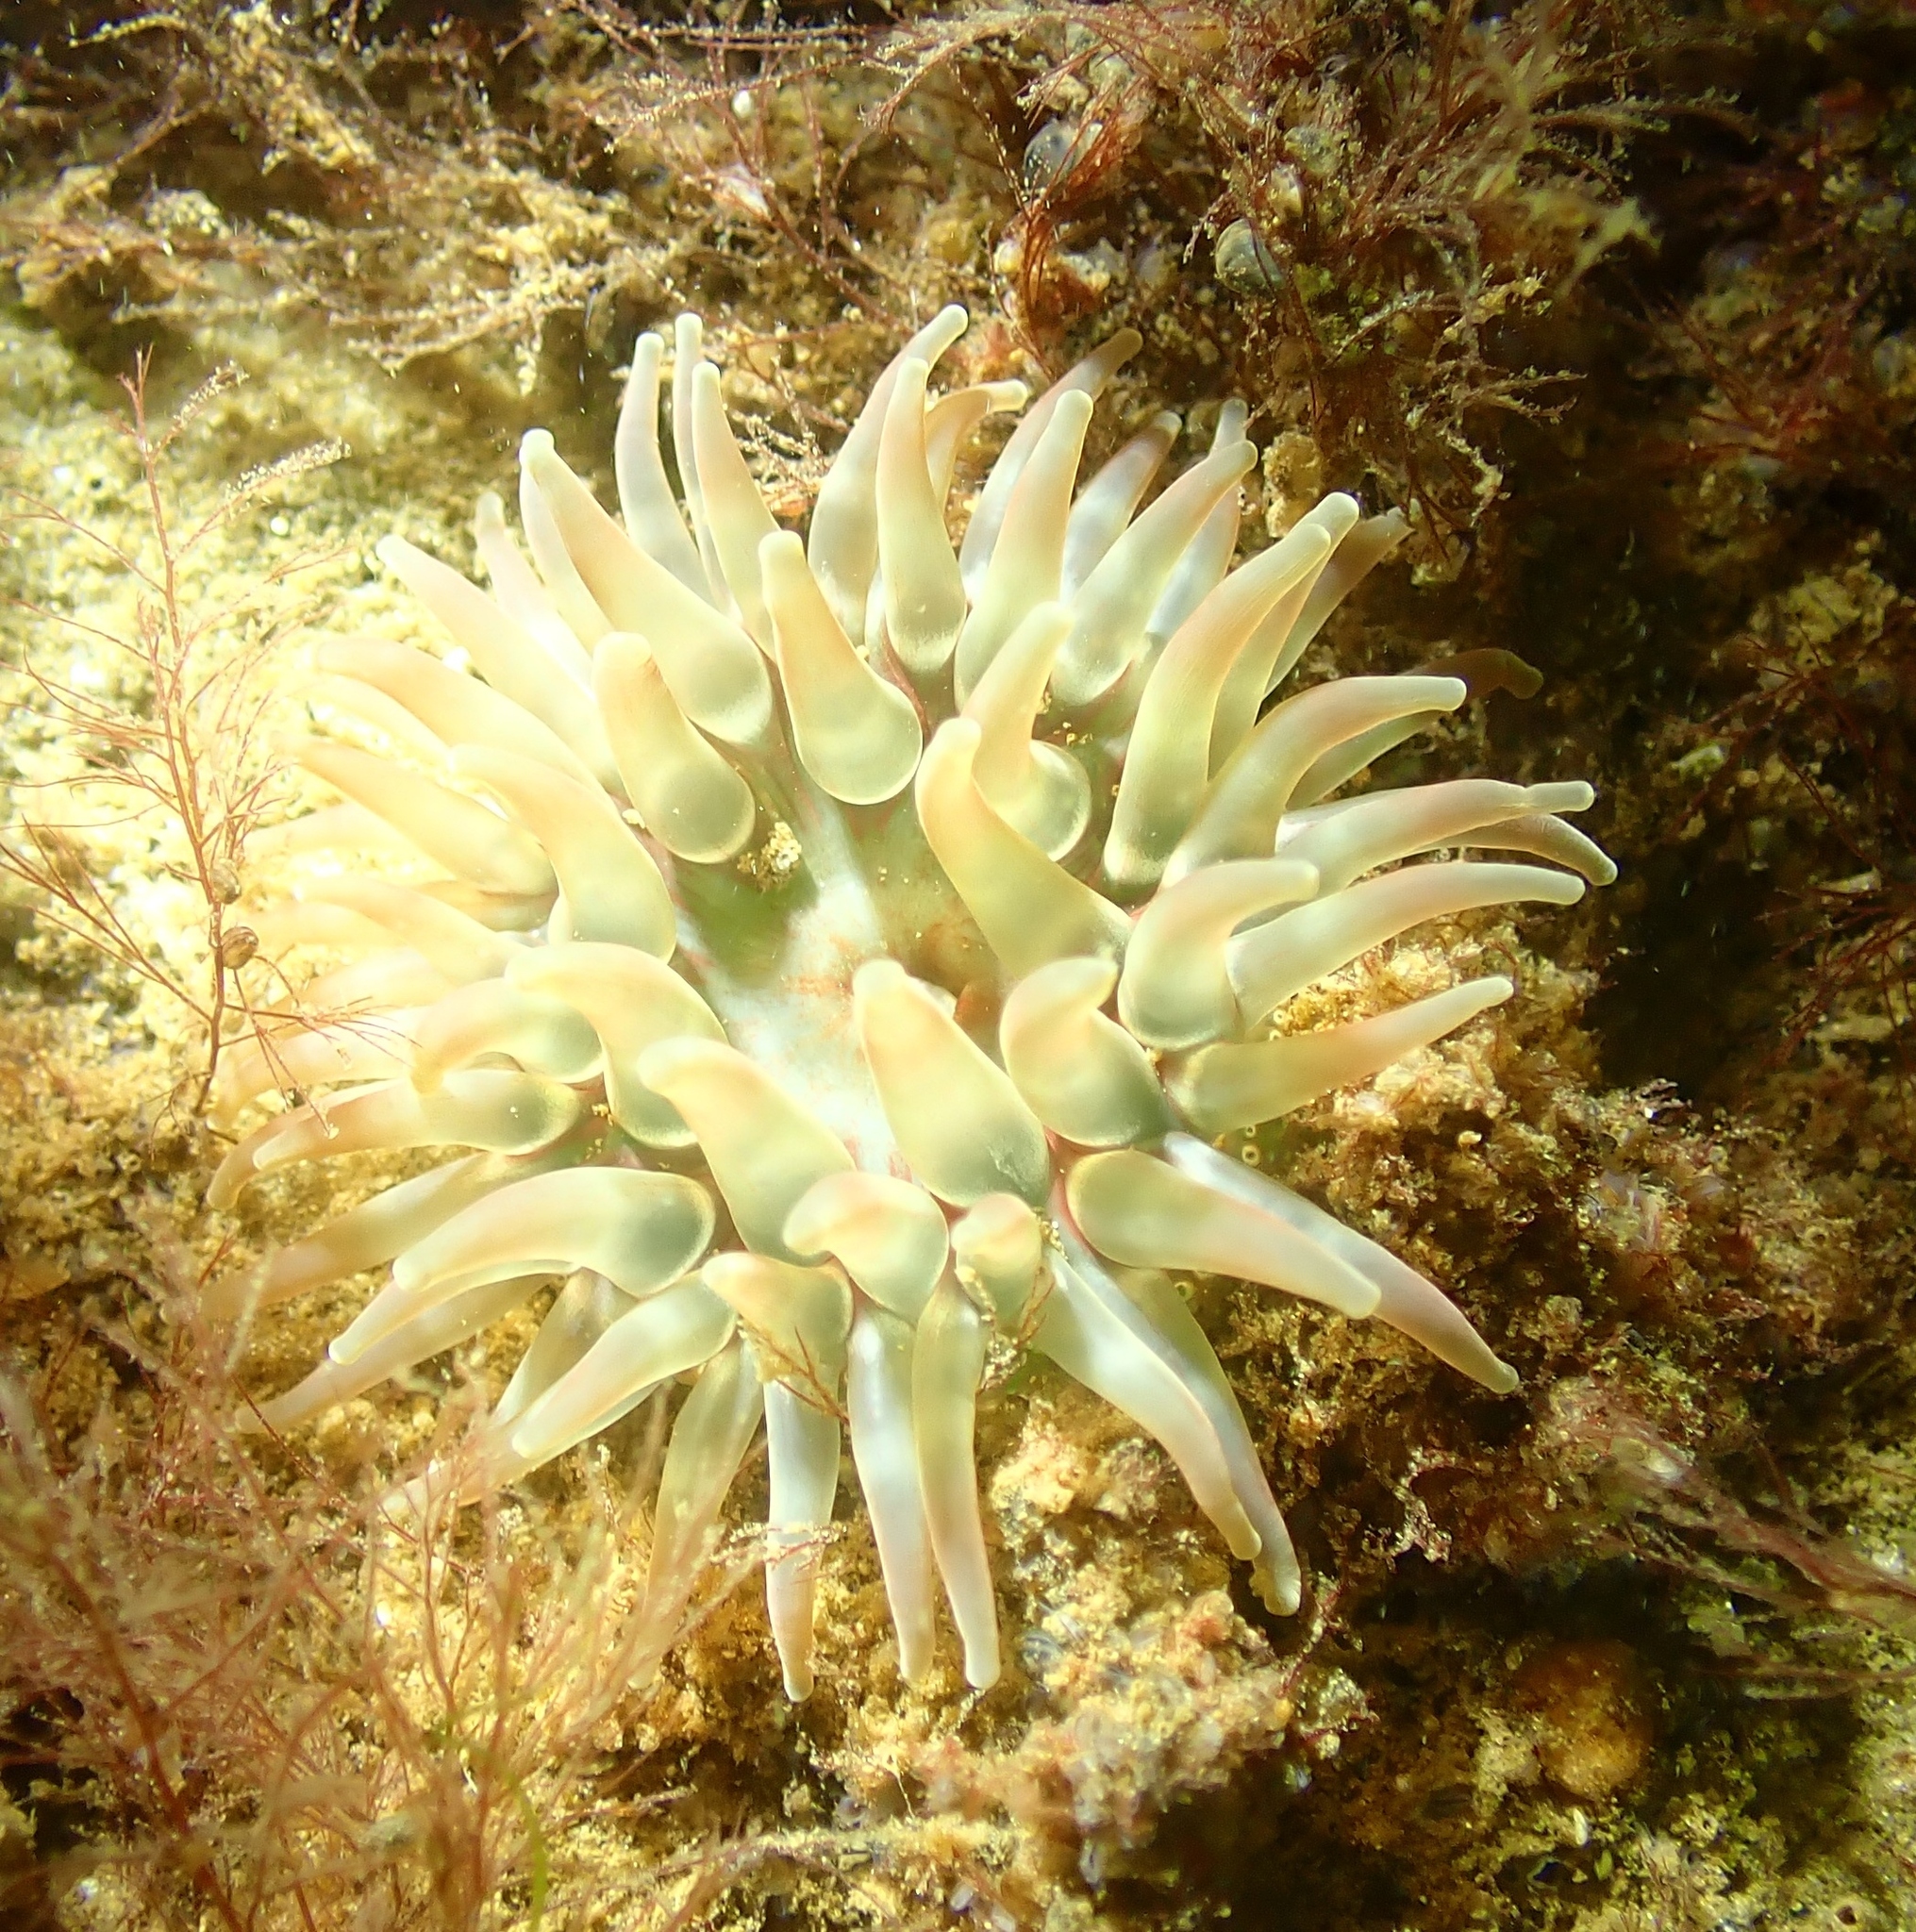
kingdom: Animalia
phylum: Cnidaria
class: Anthozoa
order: Actiniaria
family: Actiniidae
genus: Urticina
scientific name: Urticina felina
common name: Dahlia anemone
